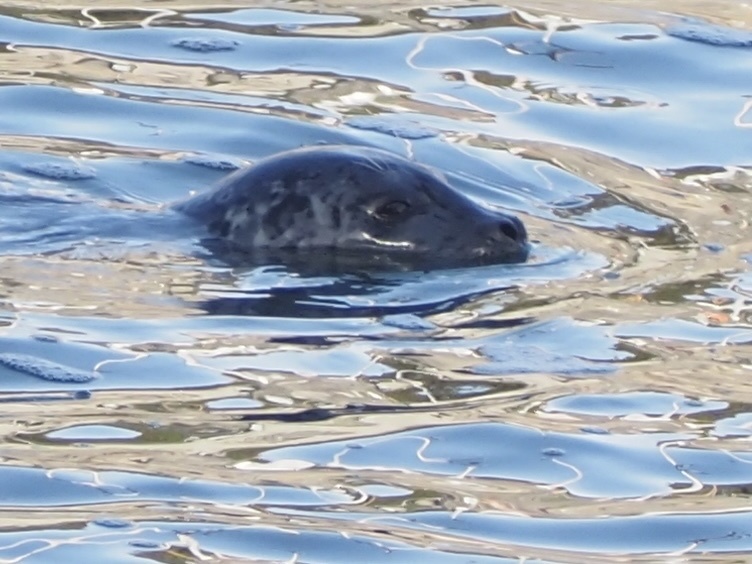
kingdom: Animalia
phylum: Chordata
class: Mammalia
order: Carnivora
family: Phocidae
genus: Phoca
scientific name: Phoca vitulina
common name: Harbor seal
